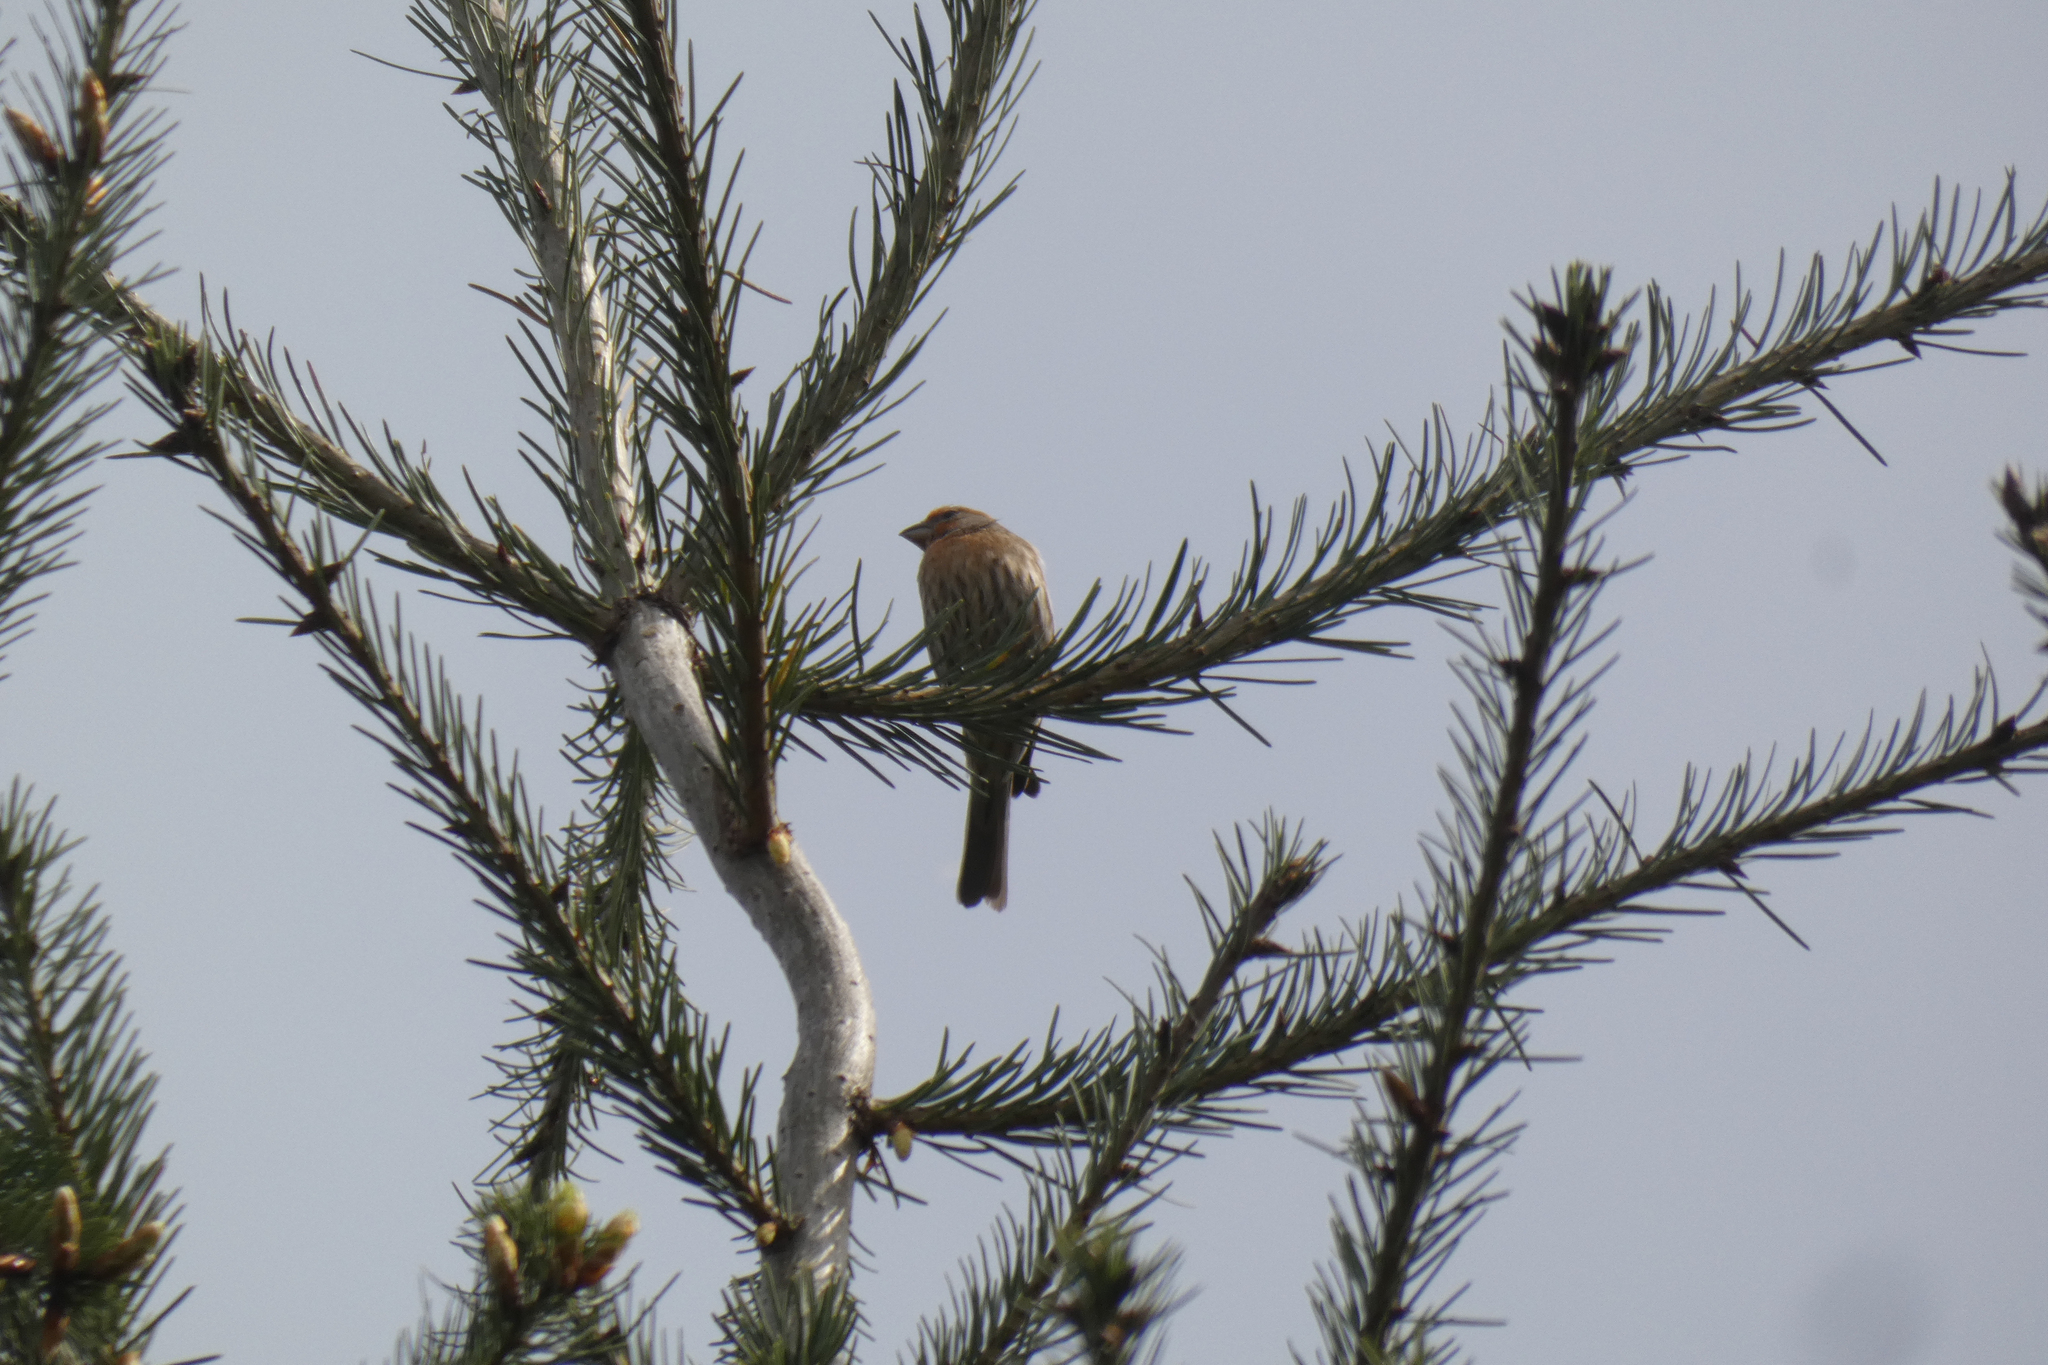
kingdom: Animalia
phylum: Chordata
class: Aves
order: Passeriformes
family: Fringillidae
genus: Haemorhous
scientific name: Haemorhous mexicanus
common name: House finch
